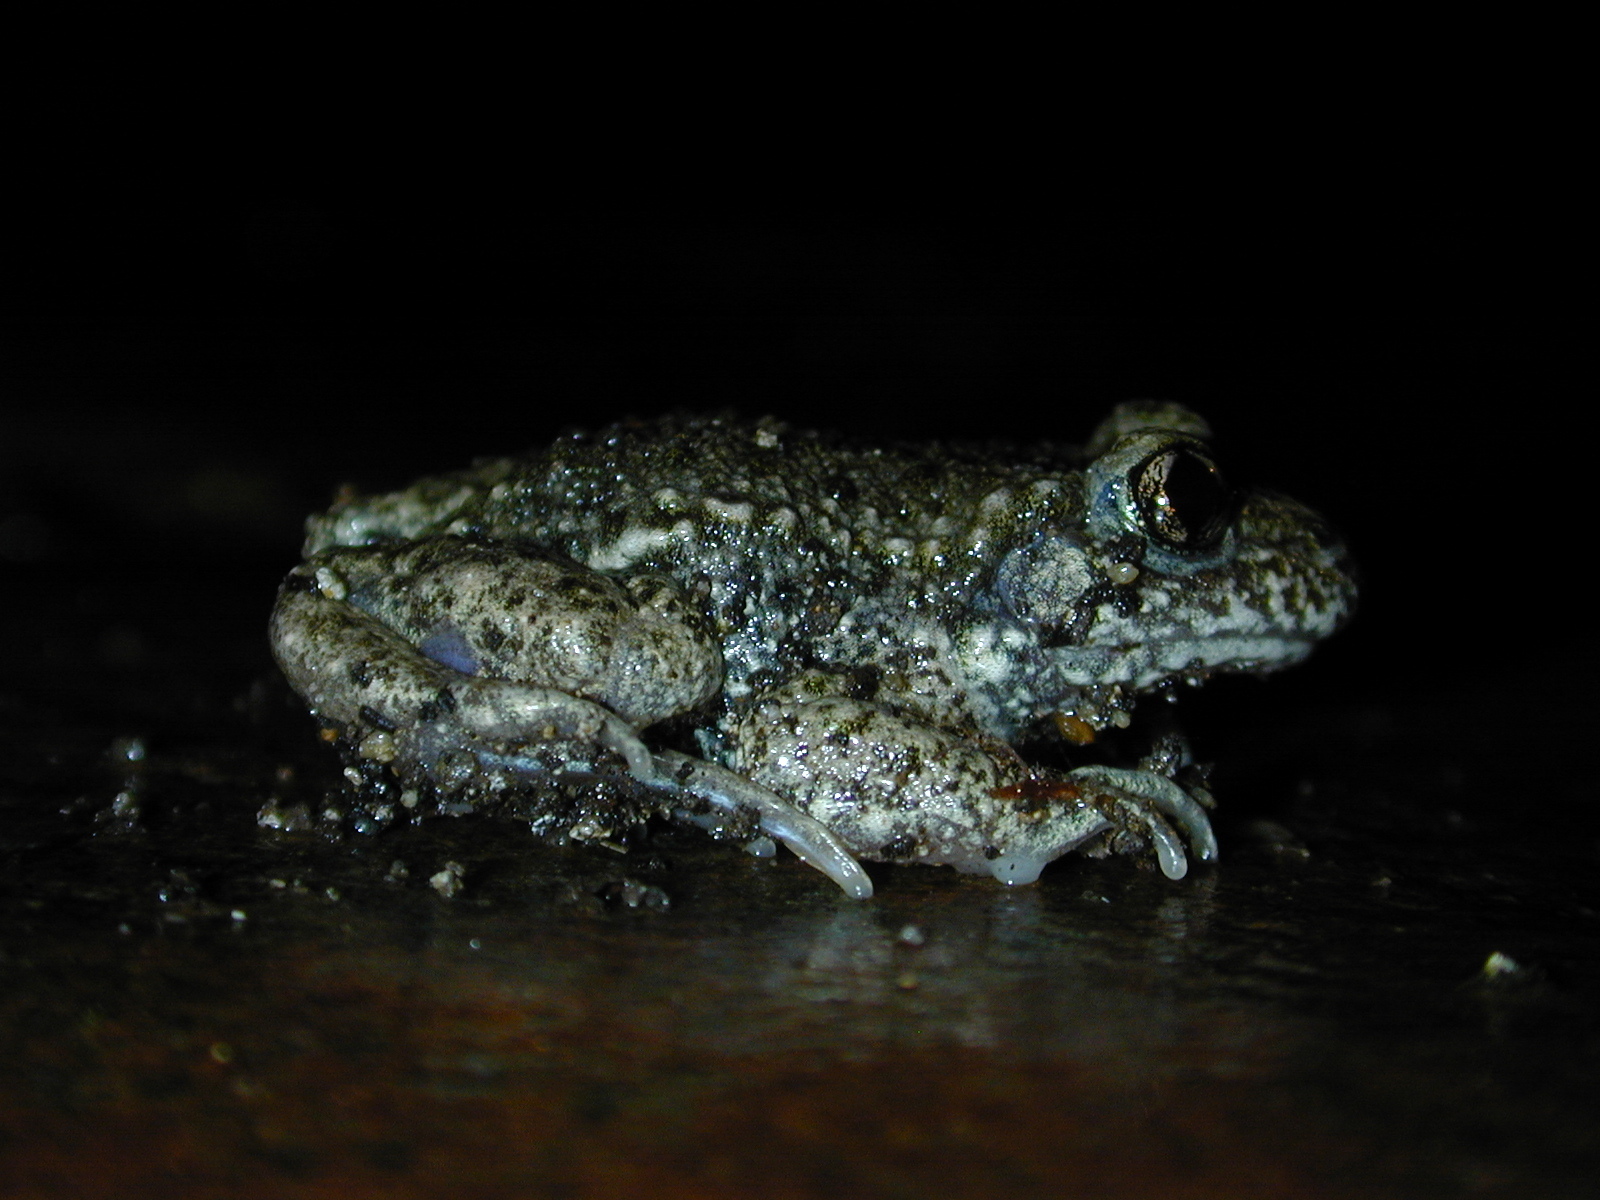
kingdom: Animalia
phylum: Chordata
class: Amphibia
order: Anura
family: Alytidae
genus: Alytes
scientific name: Alytes obstetricans
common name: Midwife toad
